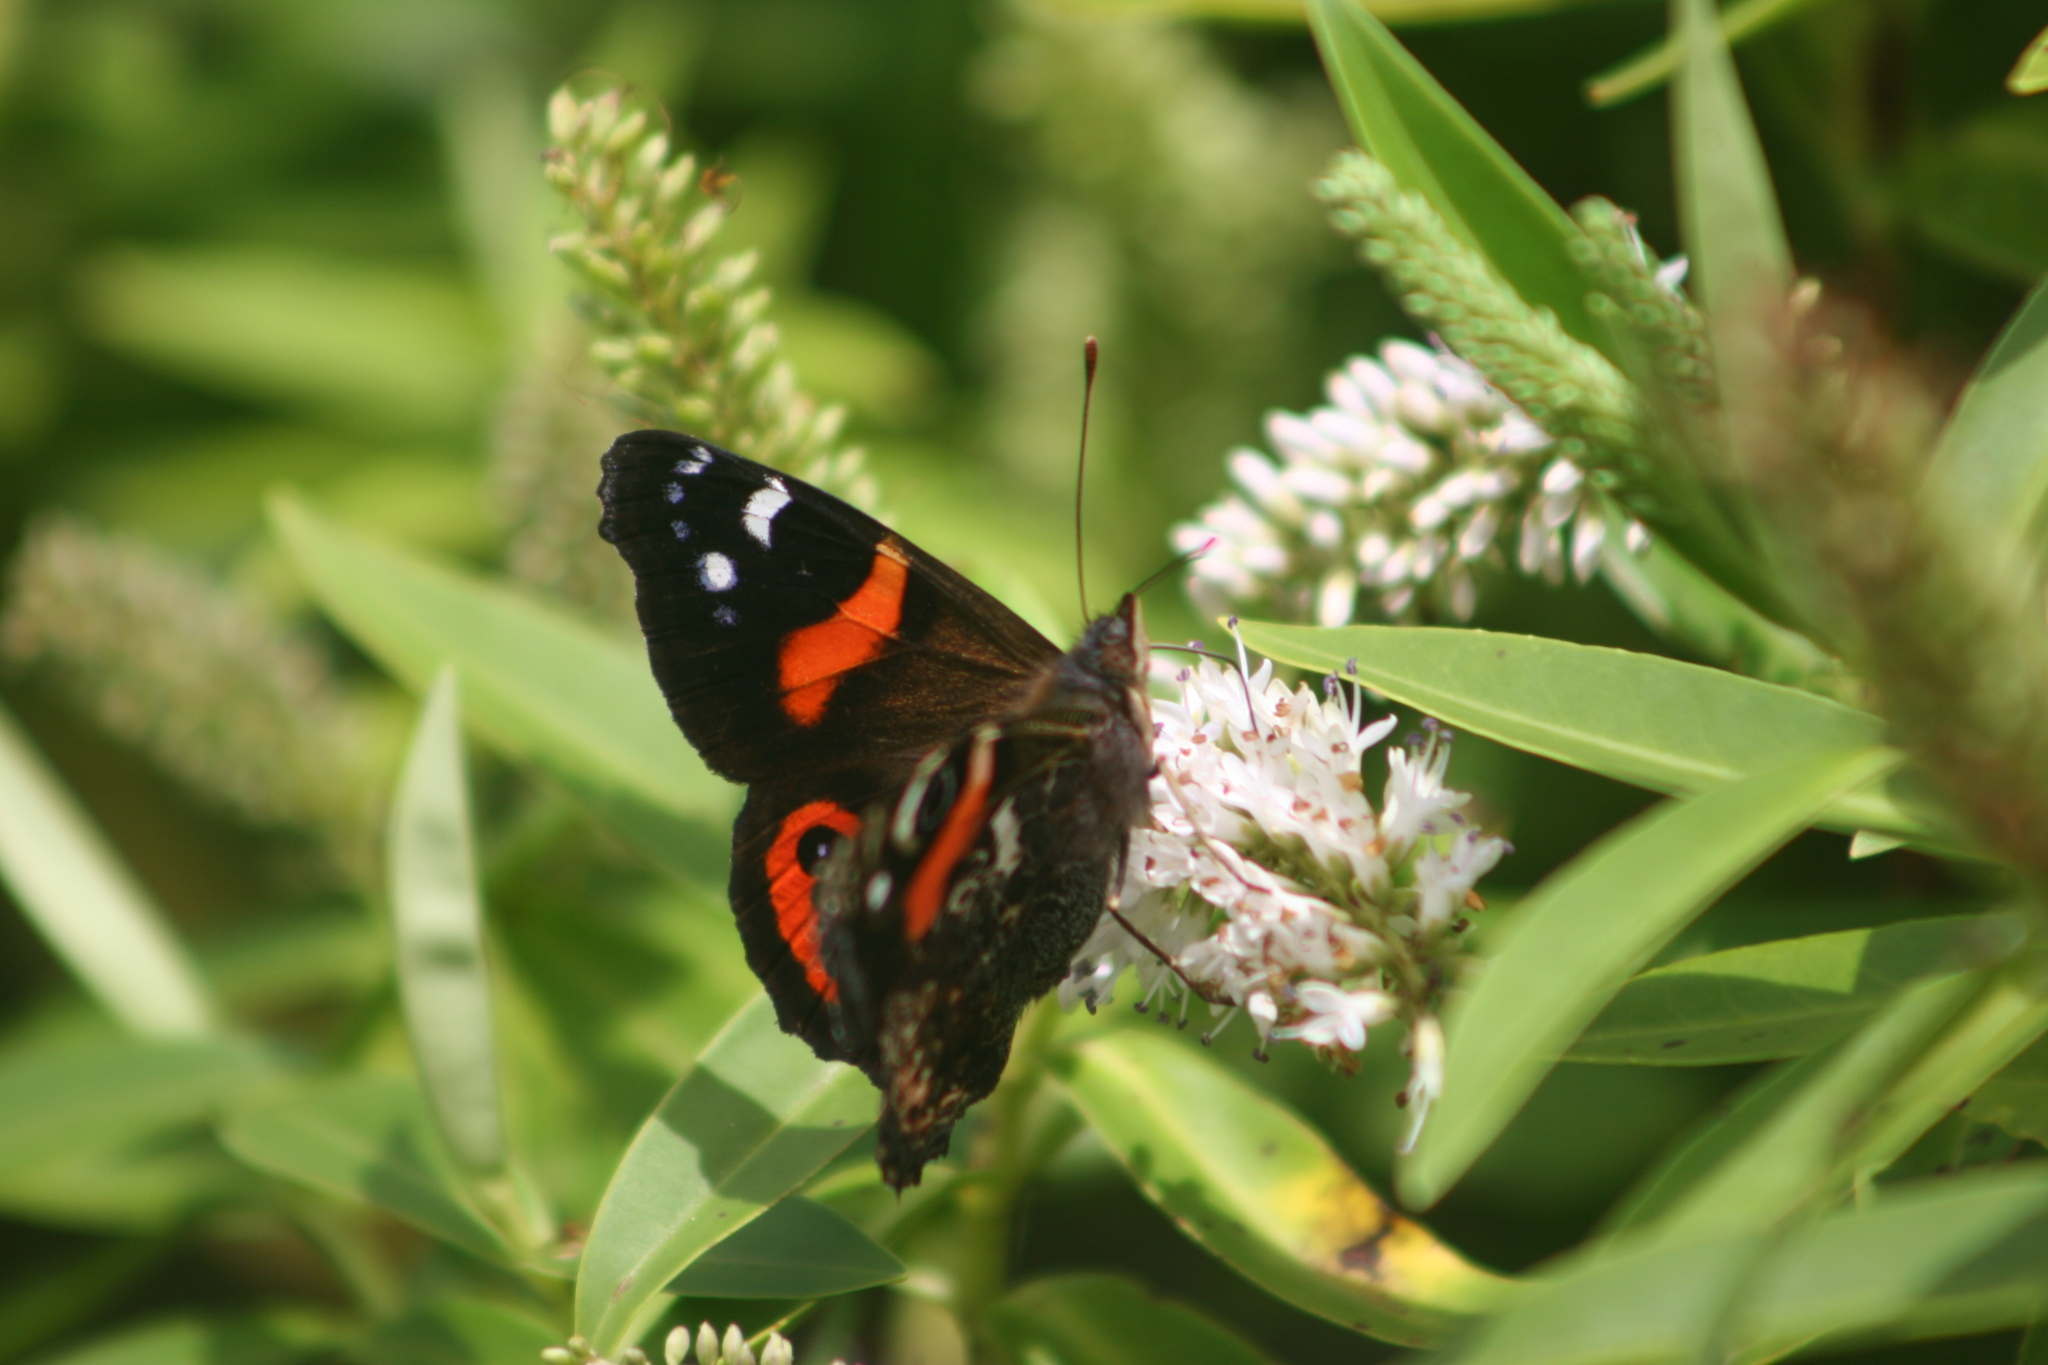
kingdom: Animalia
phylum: Arthropoda
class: Insecta
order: Lepidoptera
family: Nymphalidae
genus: Vanessa
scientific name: Vanessa gonerilla
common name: New zealand red admiral
